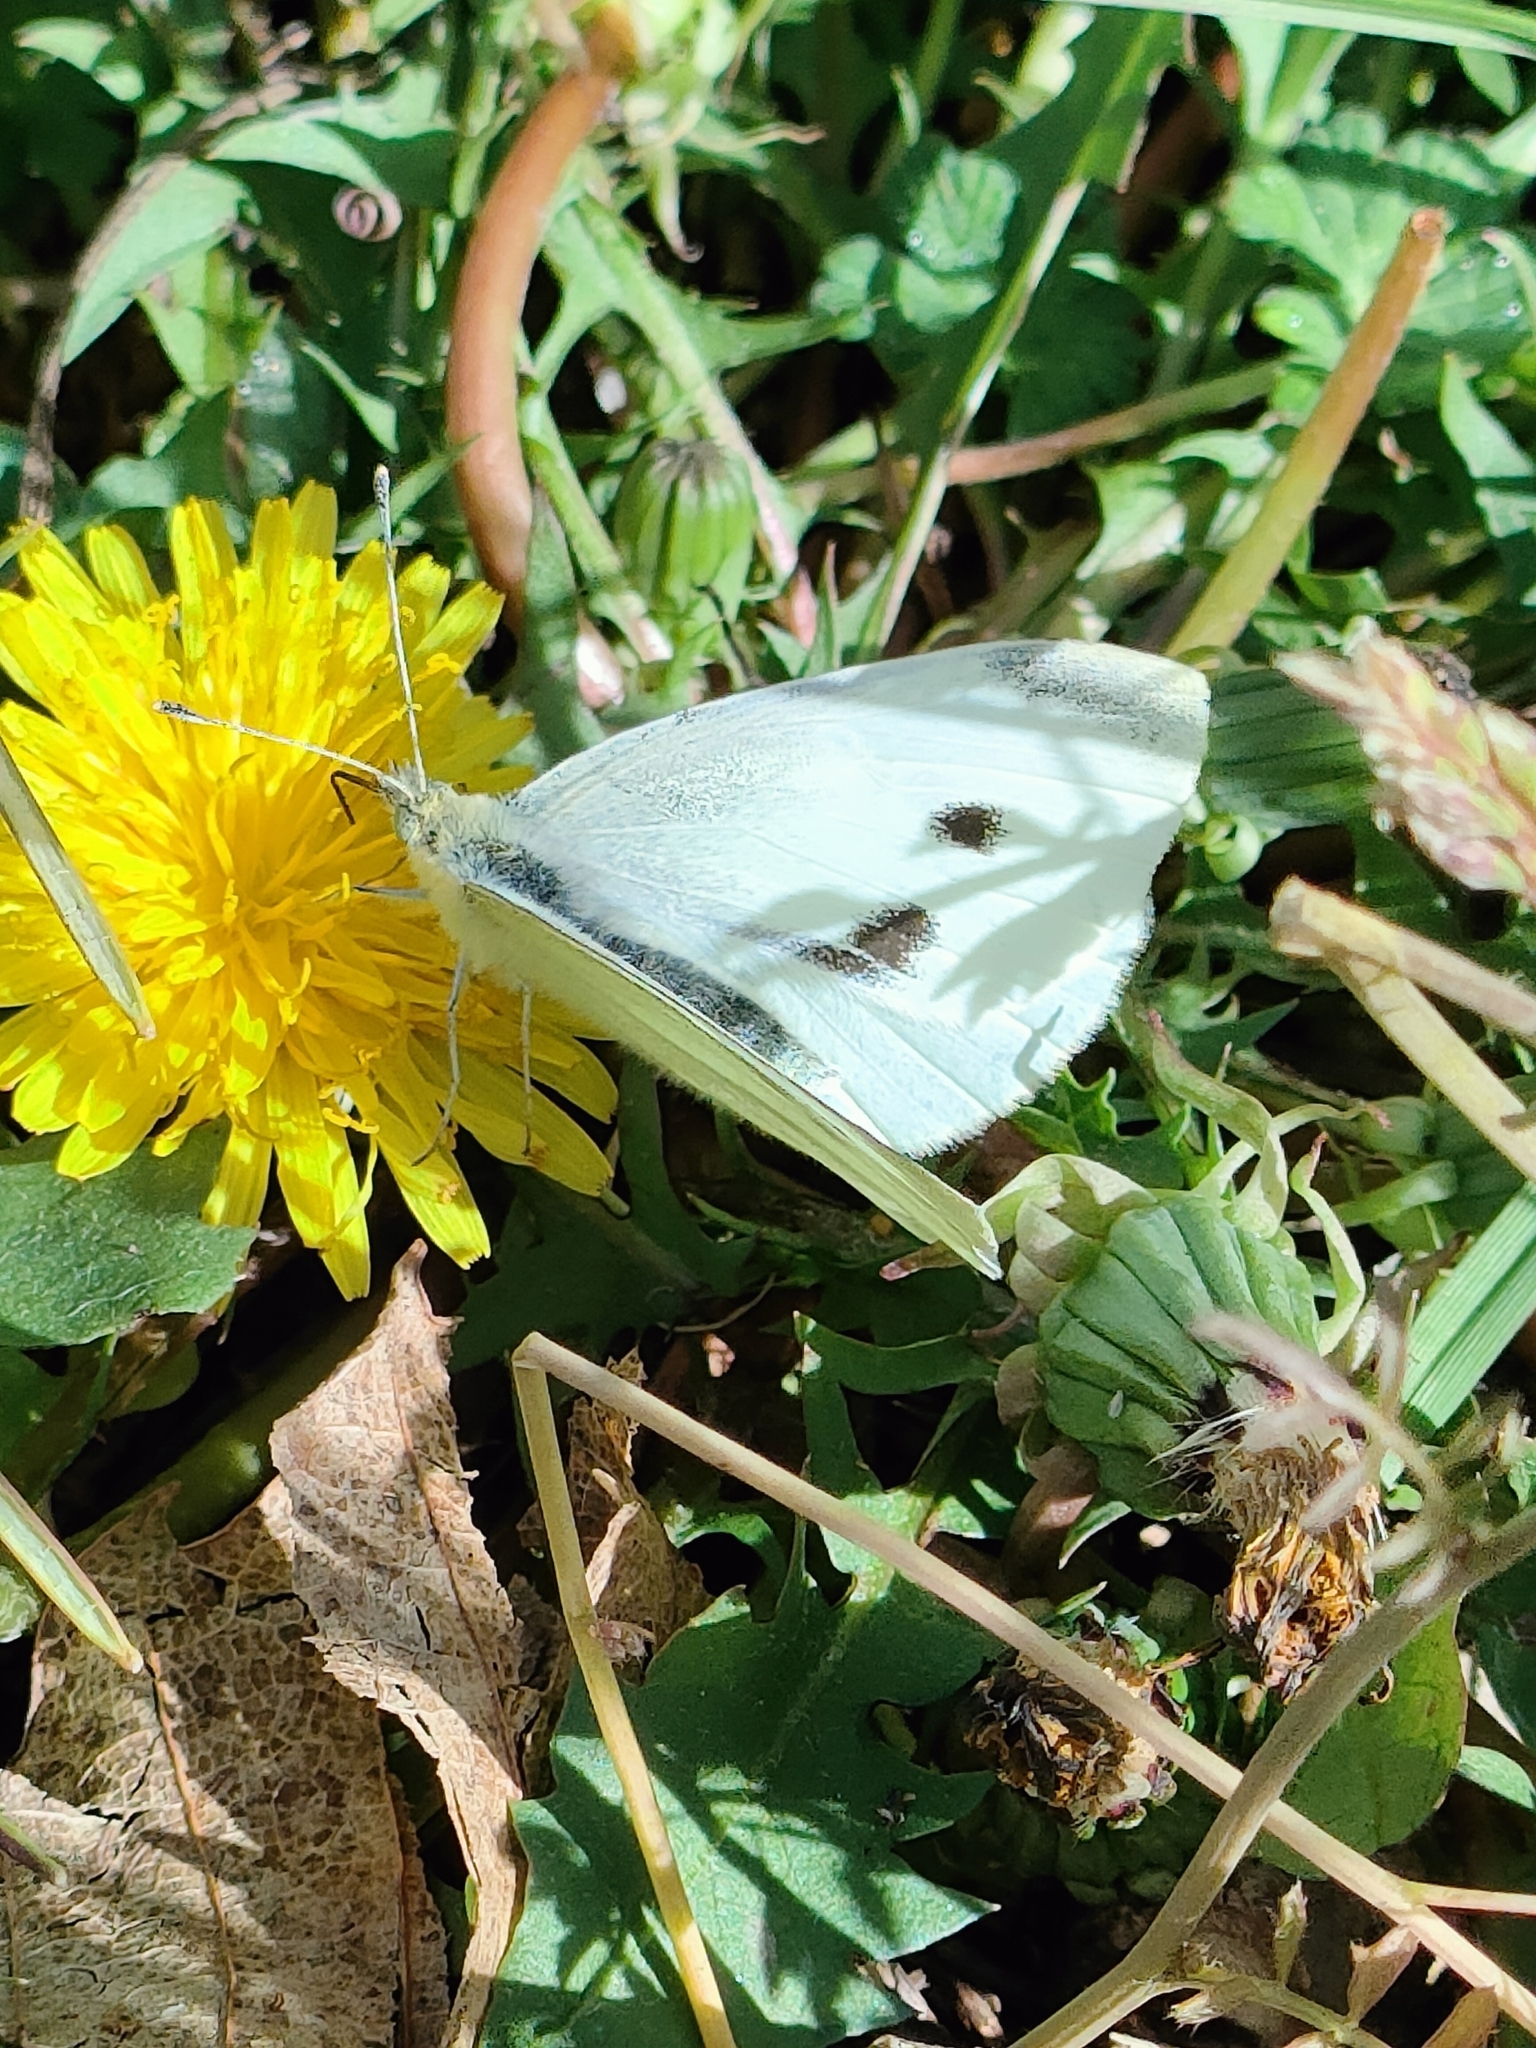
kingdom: Animalia
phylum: Arthropoda
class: Insecta
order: Lepidoptera
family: Pieridae
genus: Pieris
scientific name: Pieris rapae
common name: Small white
